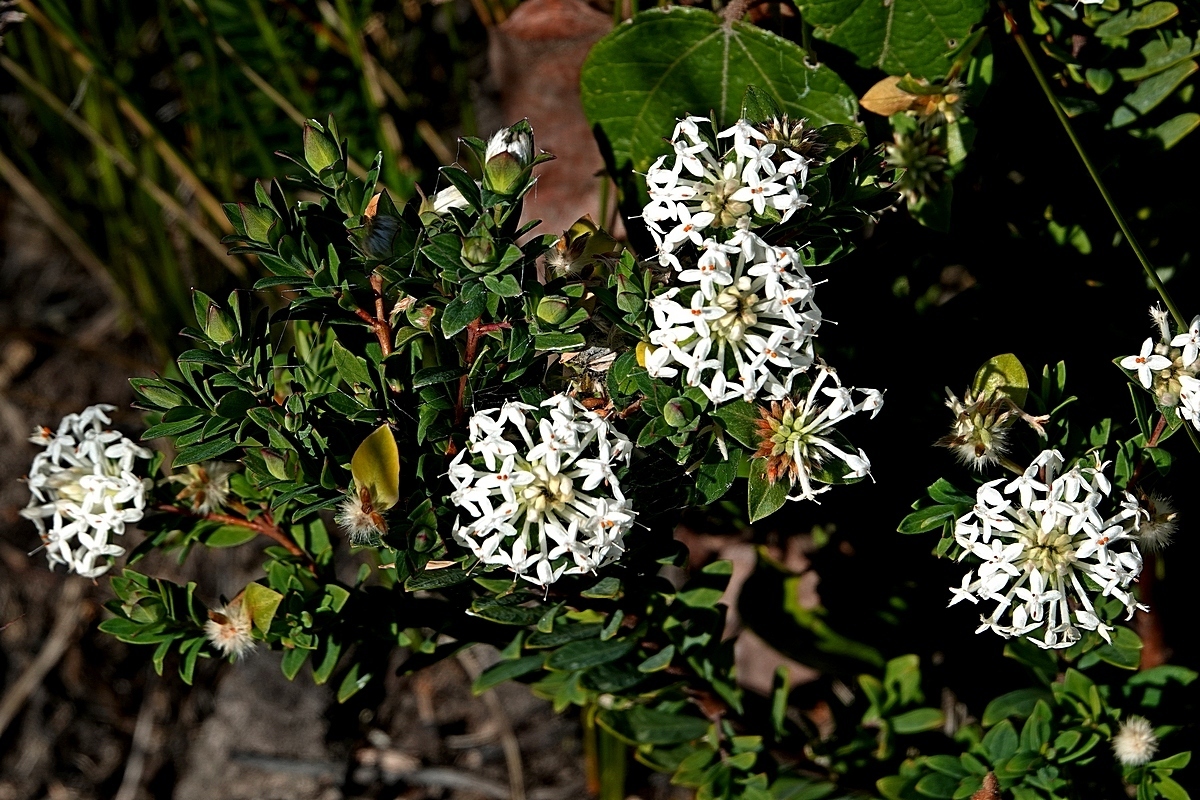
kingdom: Plantae
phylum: Tracheophyta
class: Magnoliopsida
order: Malvales
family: Thymelaeaceae
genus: Pimelea
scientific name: Pimelea linifolia
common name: Queen-of-the-bush
